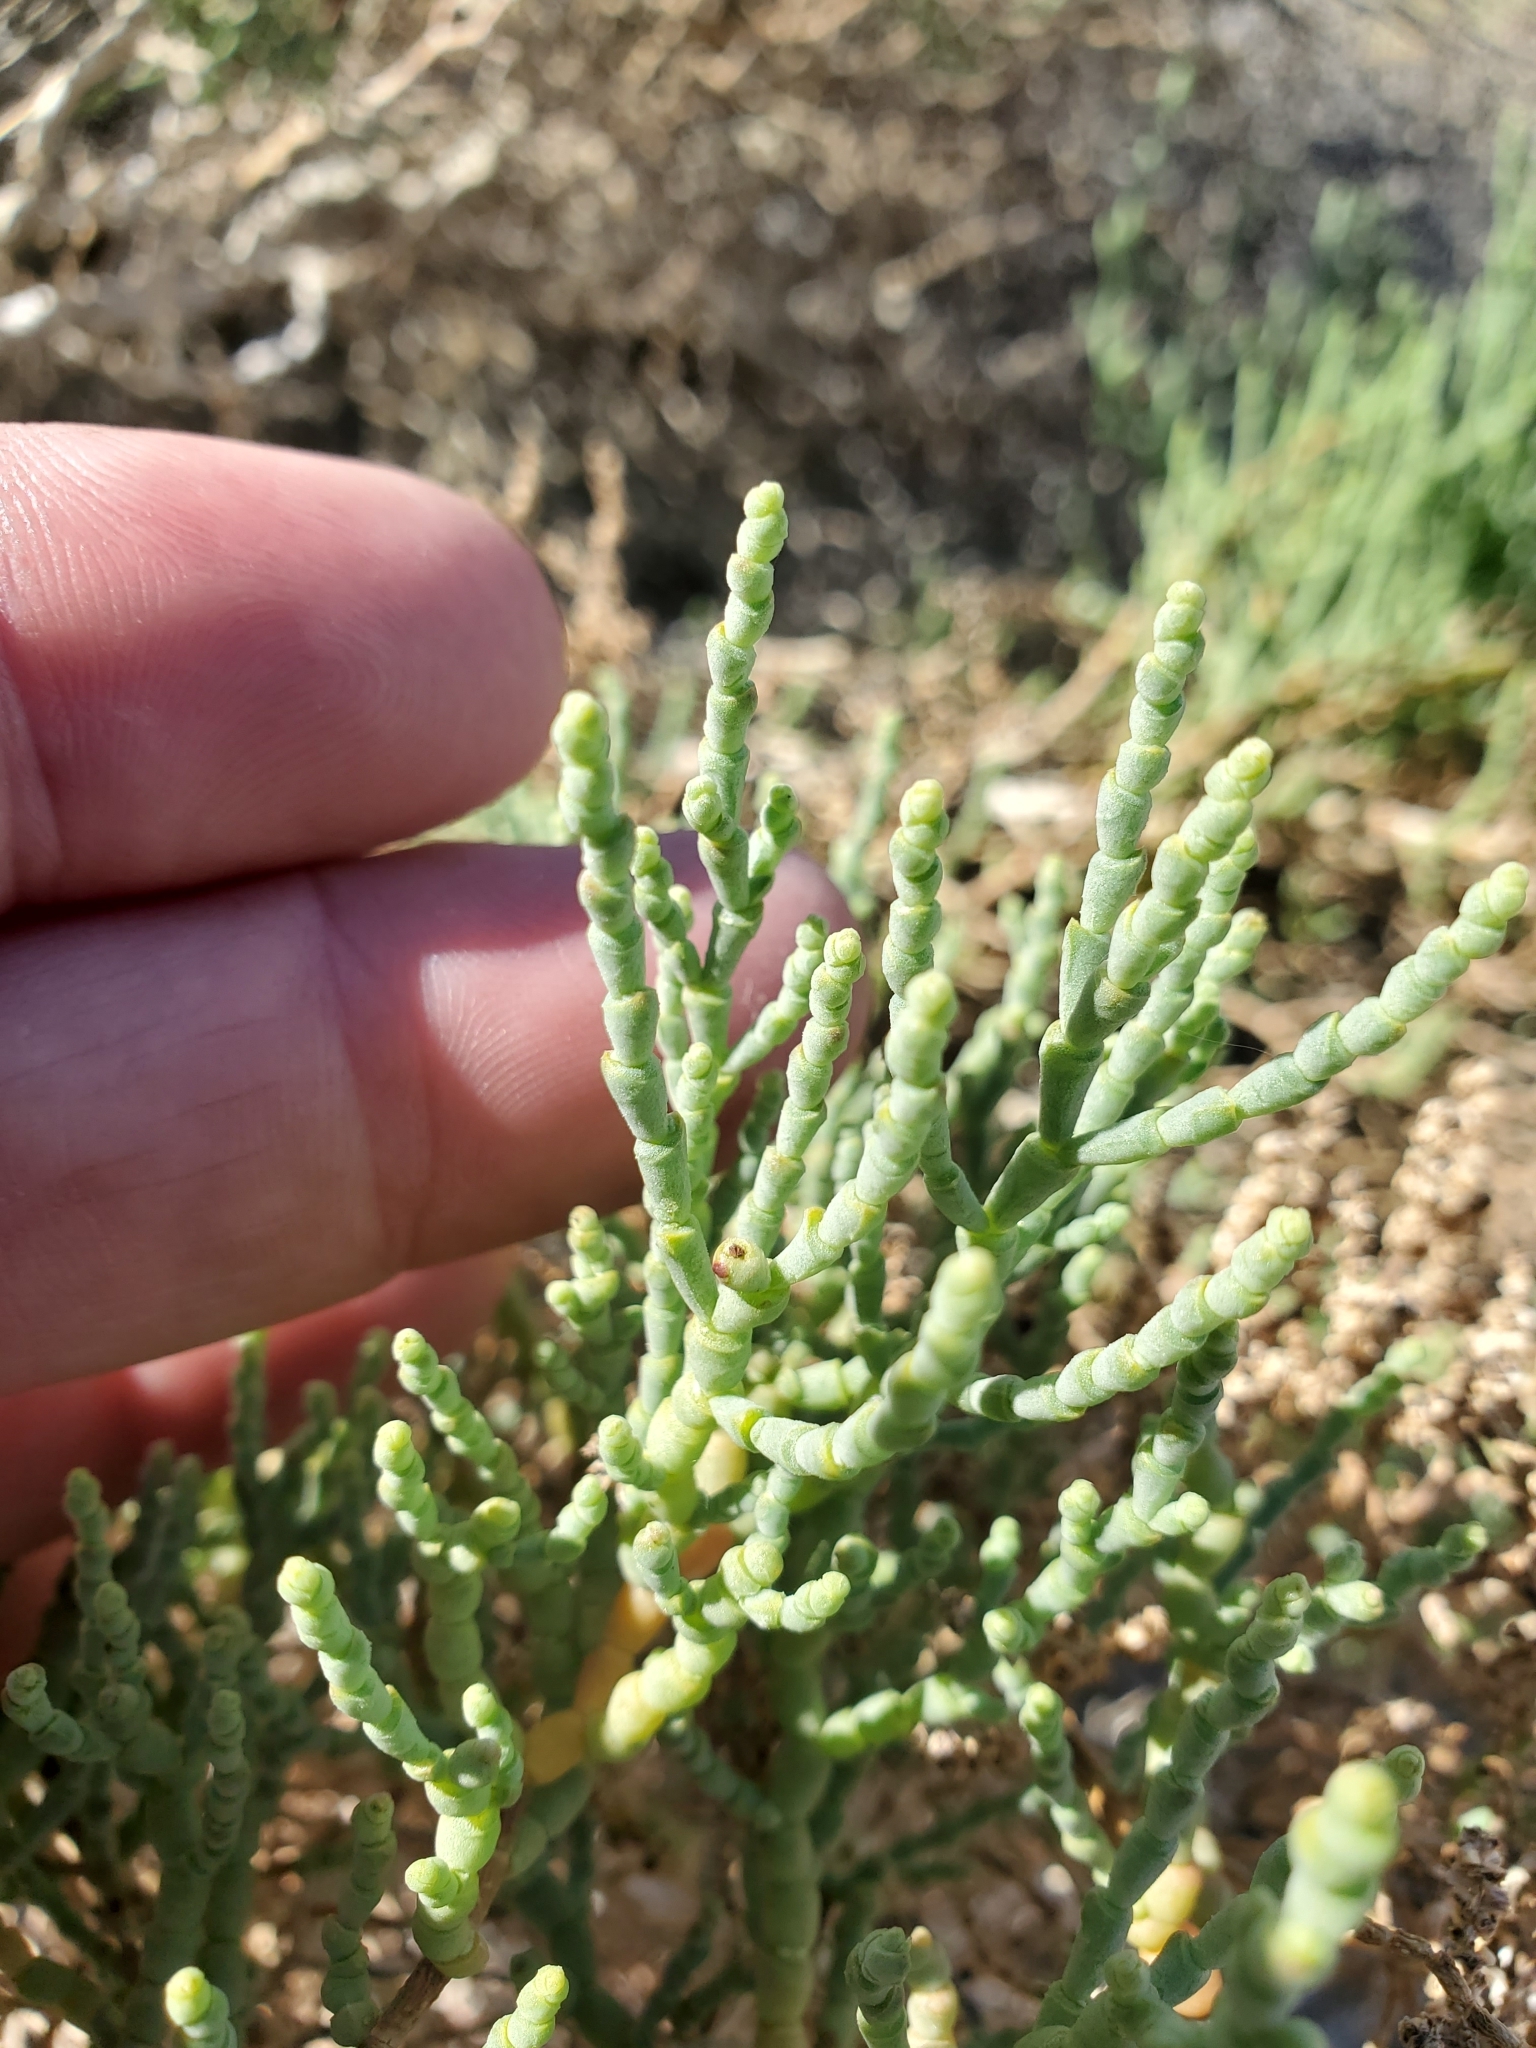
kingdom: Plantae
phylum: Tracheophyta
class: Magnoliopsida
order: Caryophyllales
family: Amaranthaceae
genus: Allenrolfea
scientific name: Allenrolfea occidentalis
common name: Iodine-bush
